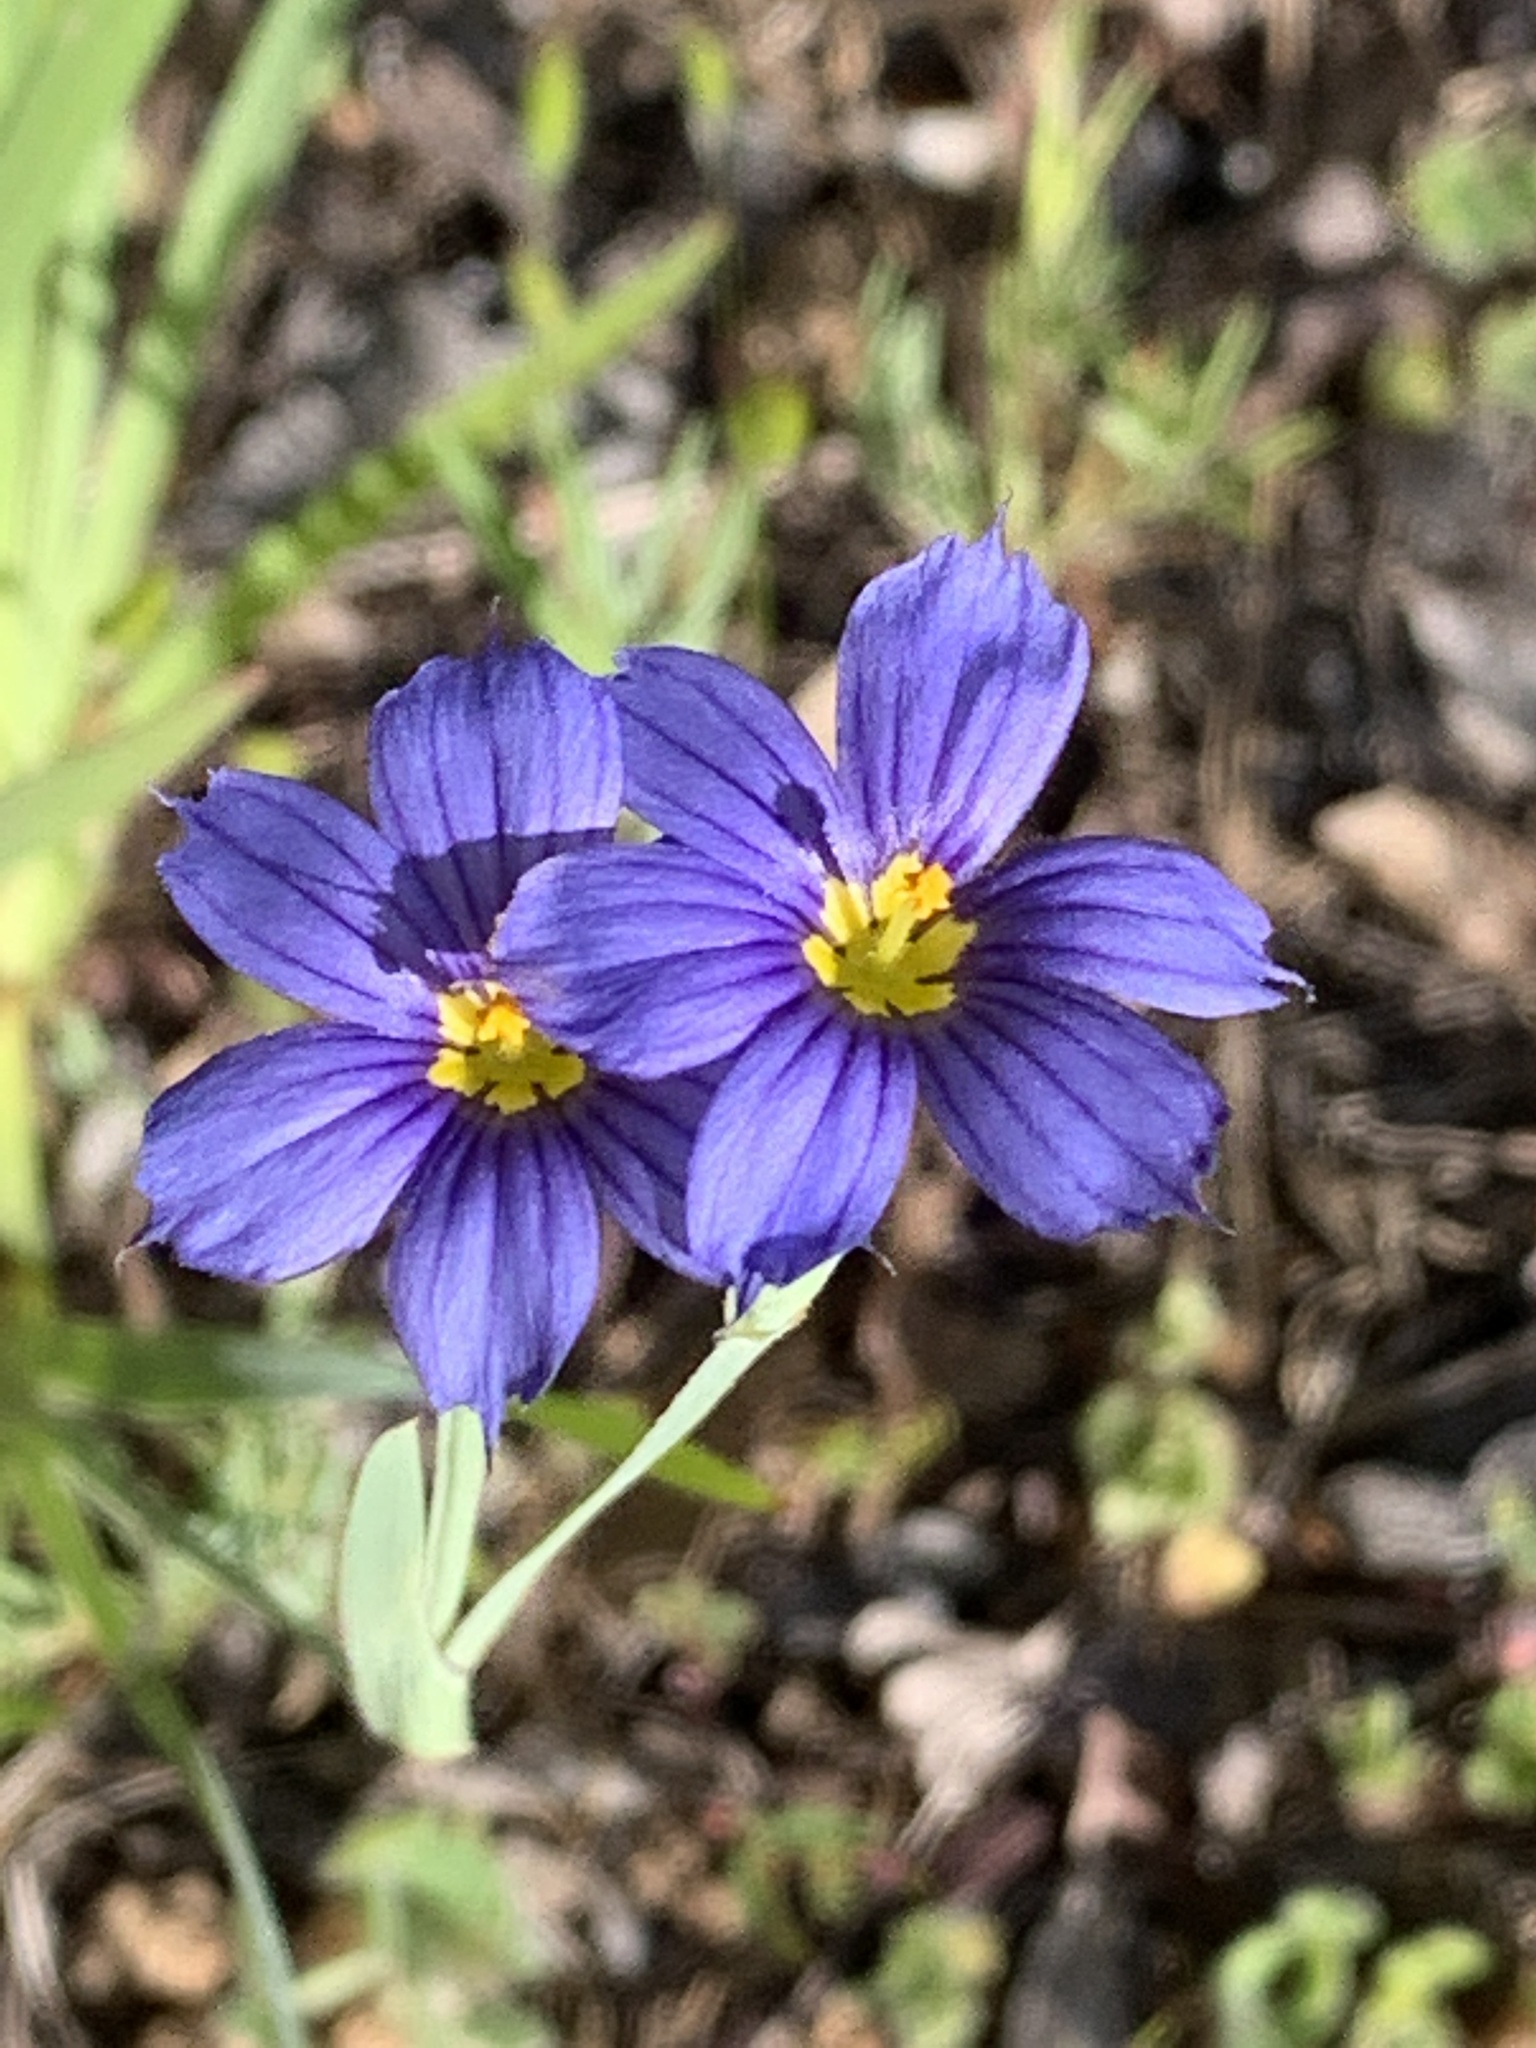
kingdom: Plantae
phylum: Tracheophyta
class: Liliopsida
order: Asparagales
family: Iridaceae
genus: Sisyrinchium
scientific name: Sisyrinchium bellum
